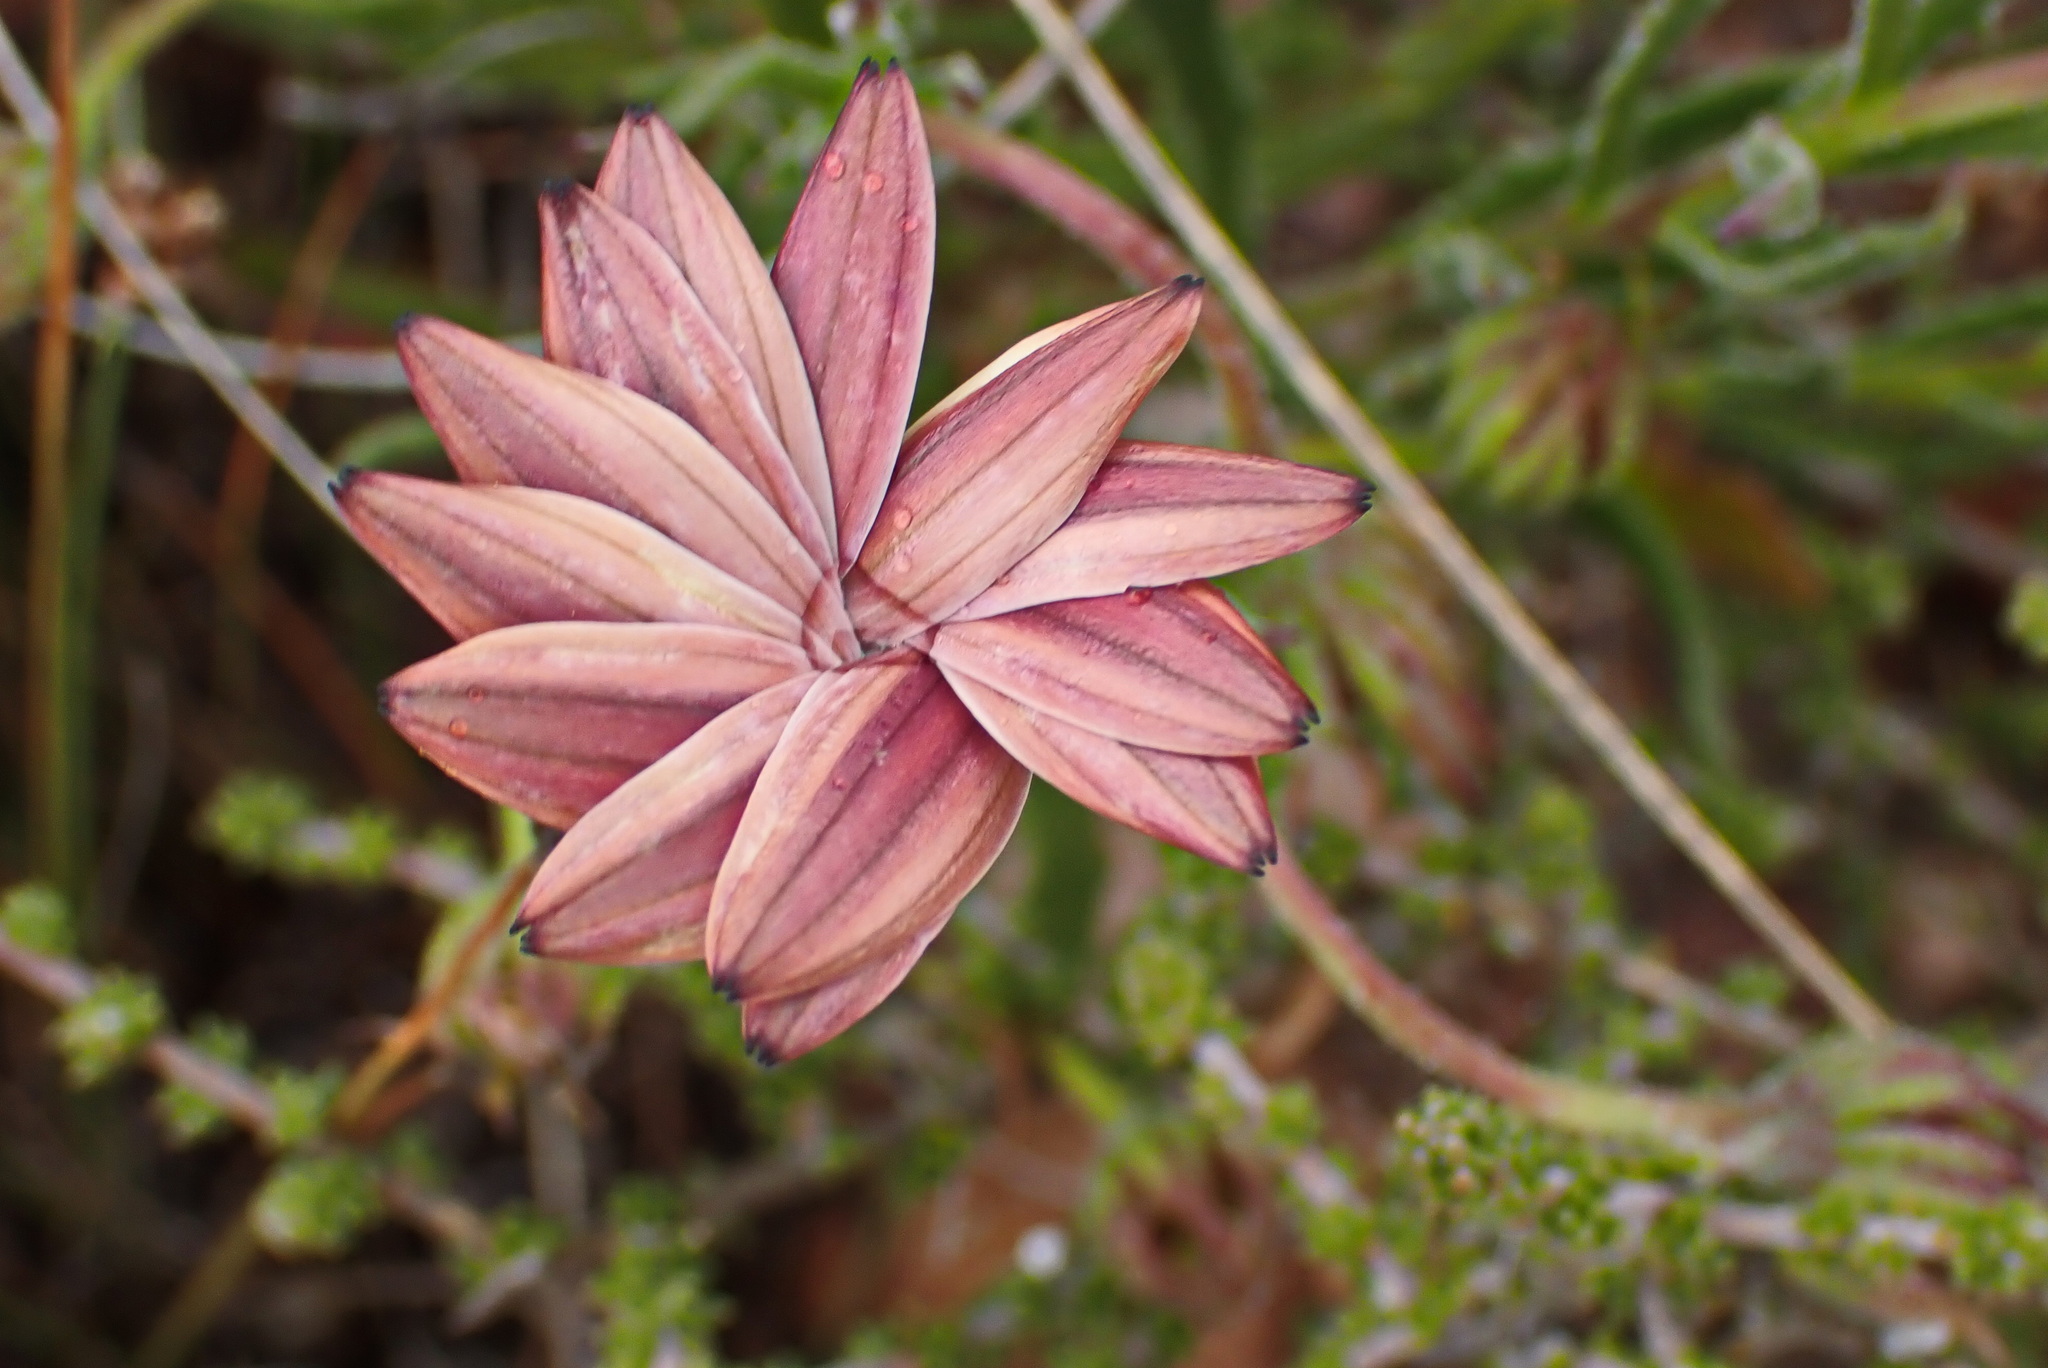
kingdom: Plantae
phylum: Tracheophyta
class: Magnoliopsida
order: Asterales
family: Asteraceae
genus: Ursinia
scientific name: Ursinia anthemoides
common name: Ursinia
